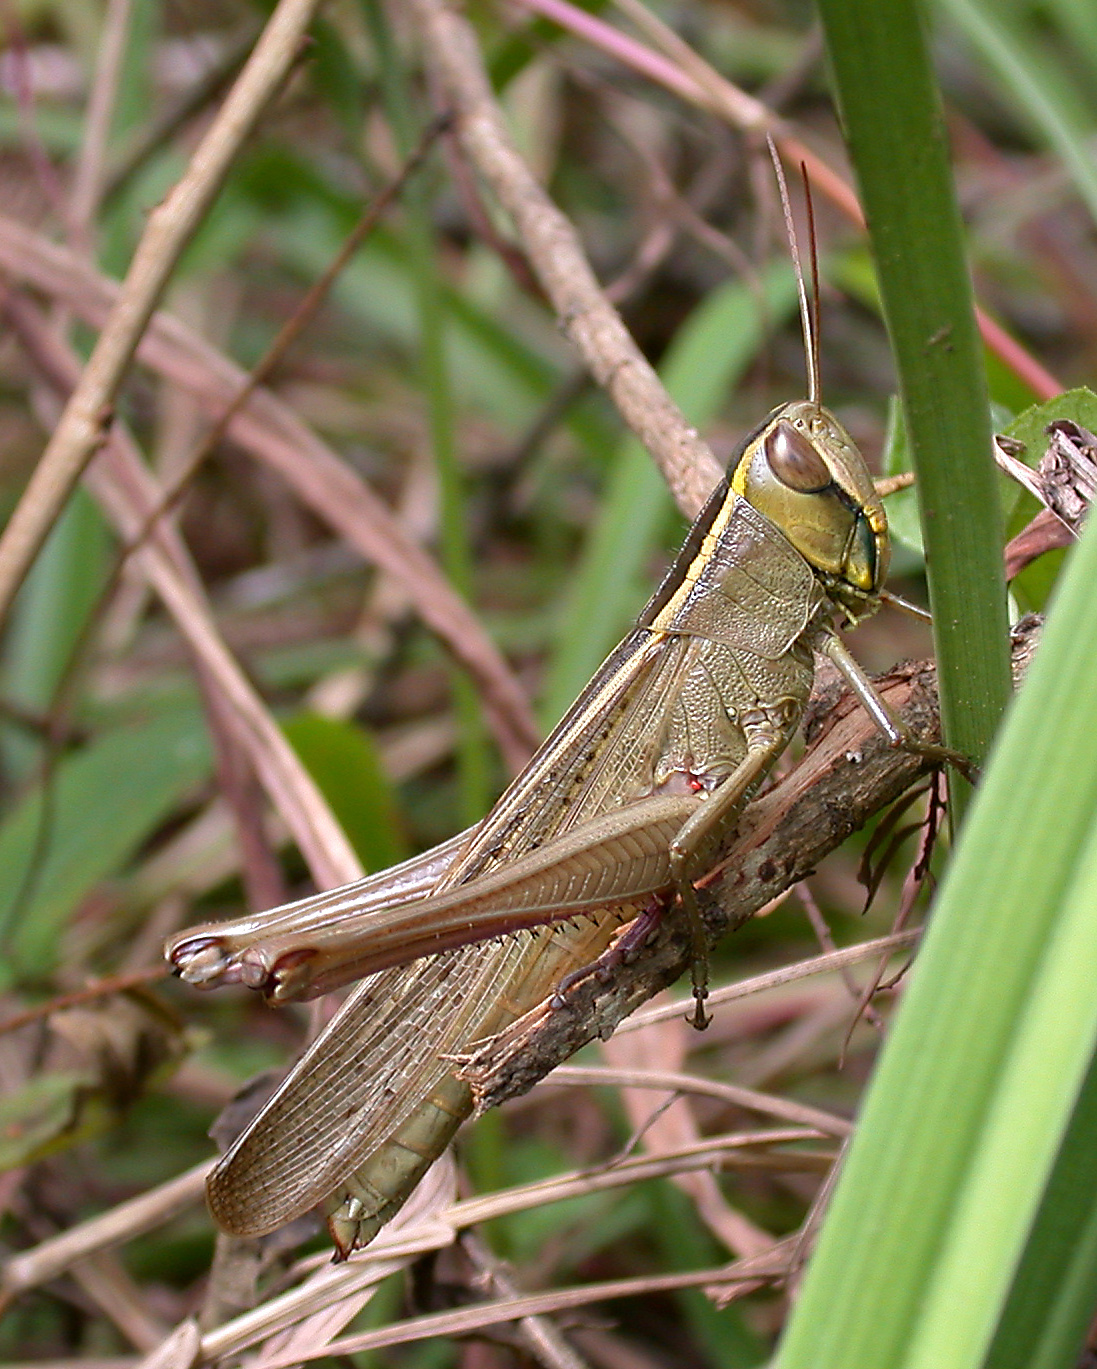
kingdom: Animalia
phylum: Arthropoda
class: Insecta
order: Orthoptera
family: Acrididae
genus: Choroedocus
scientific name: Choroedocus violaceipes
